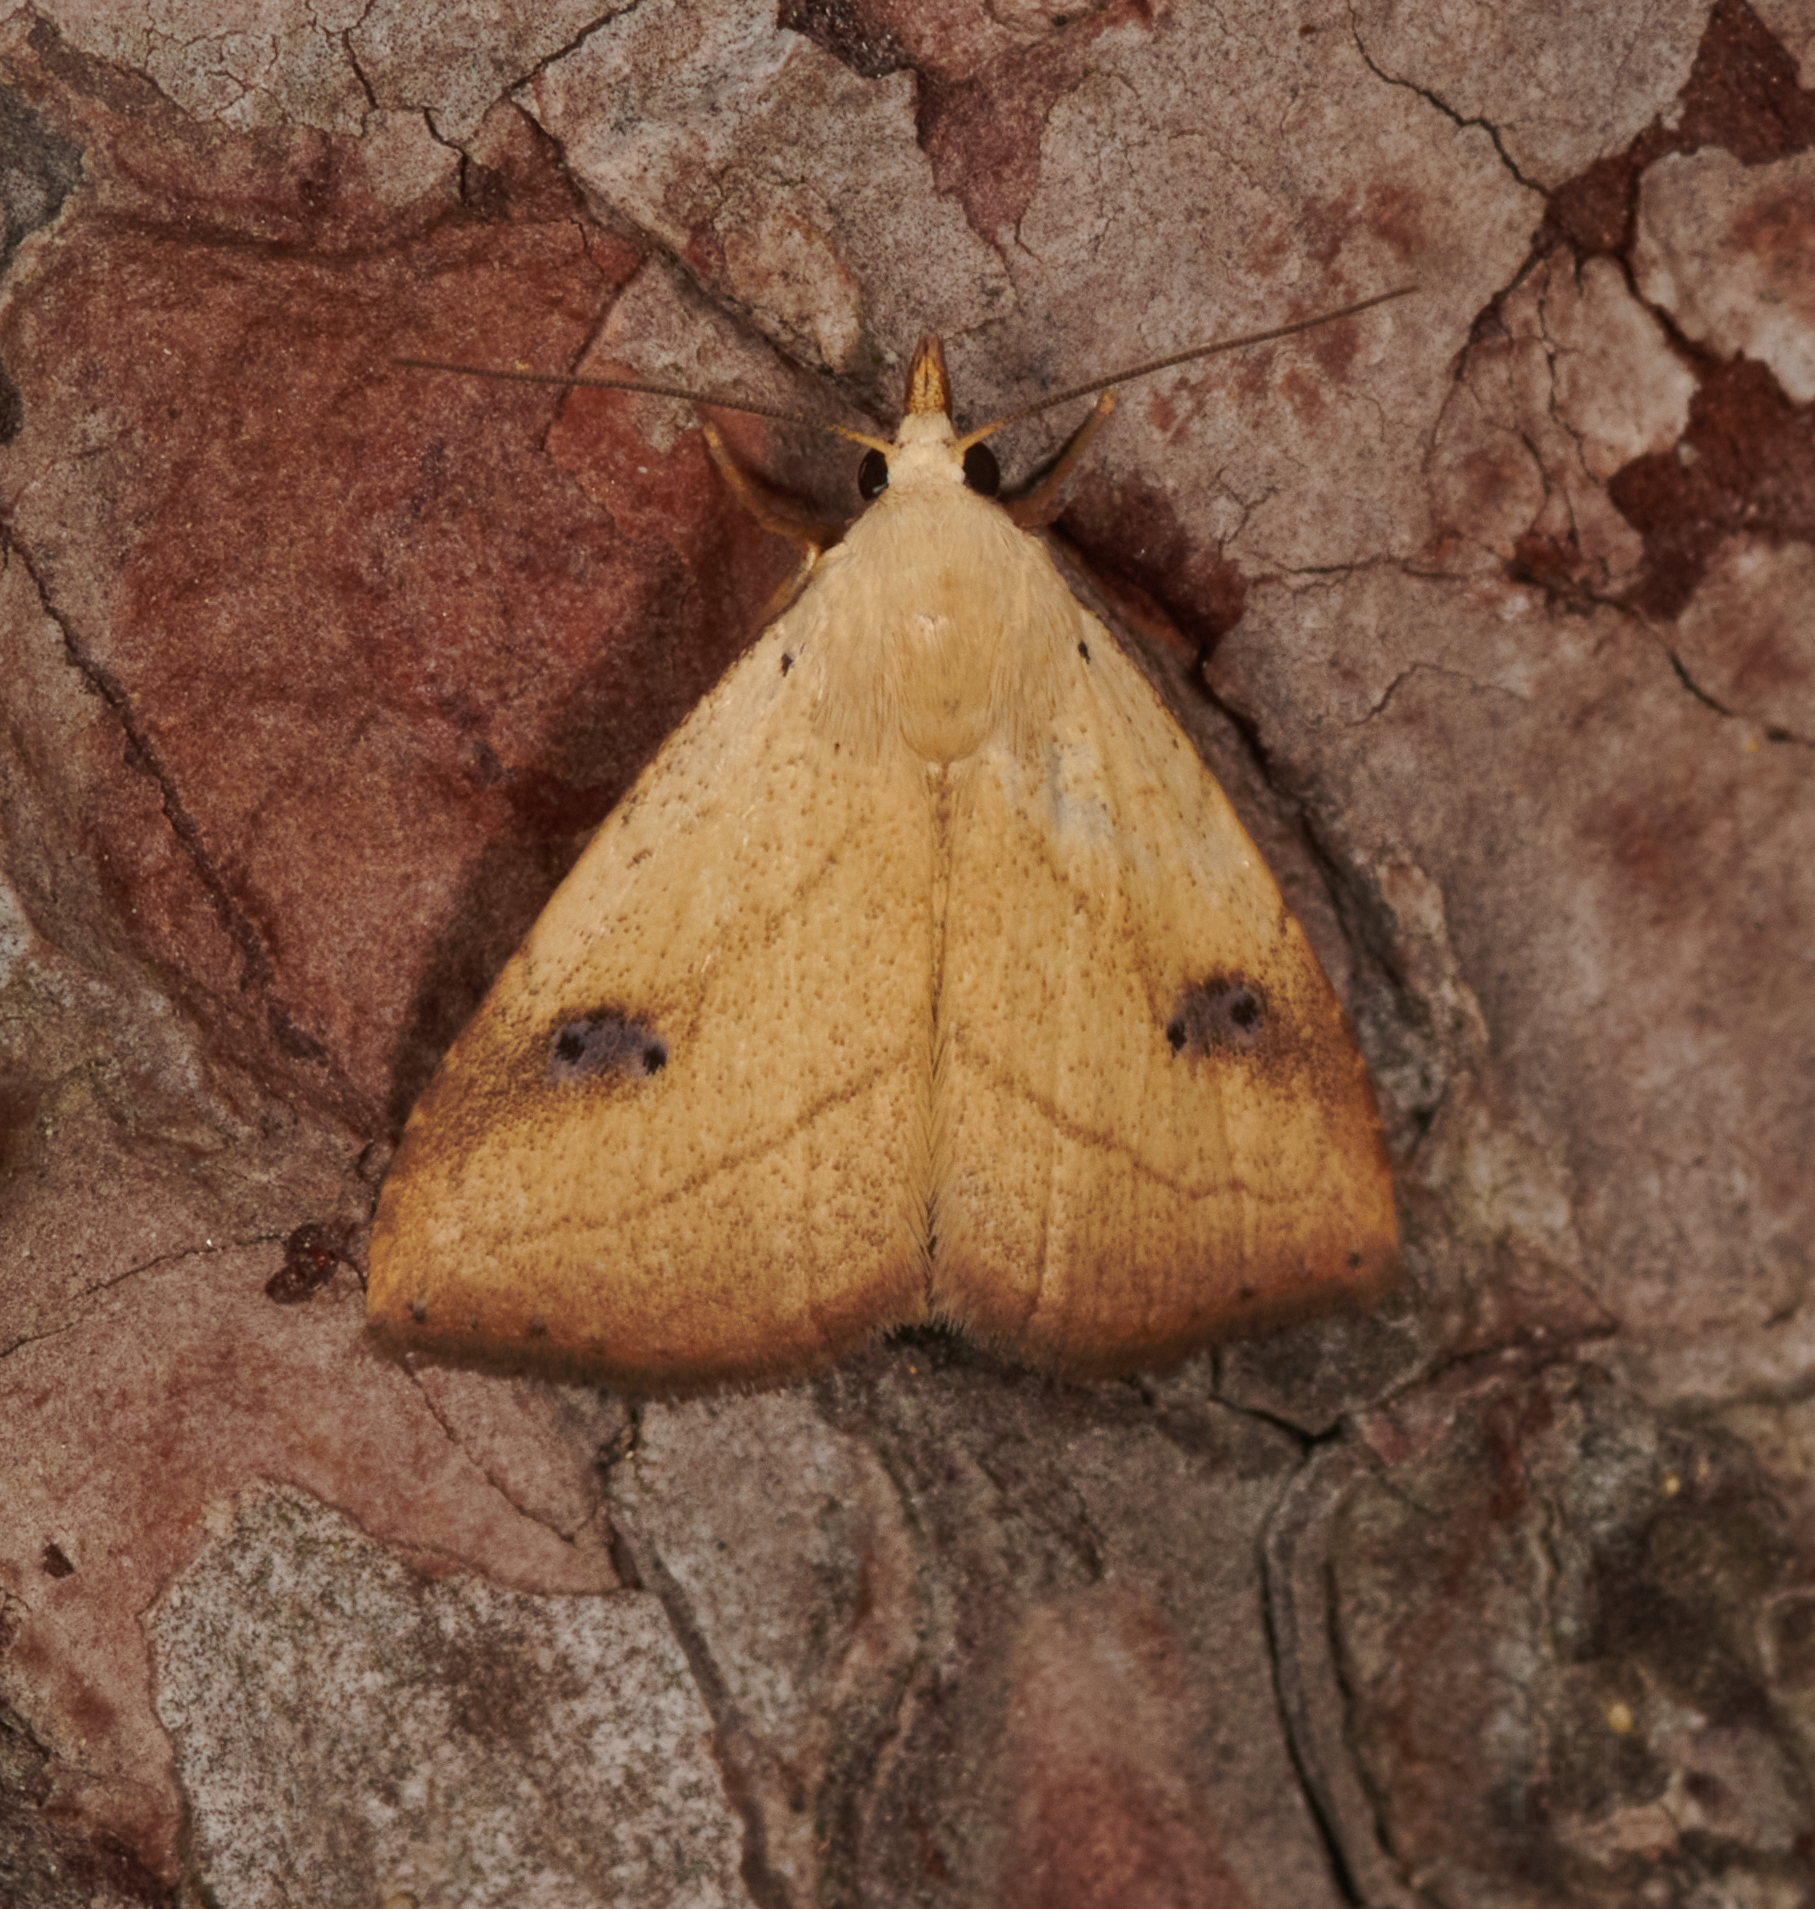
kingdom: Animalia
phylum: Arthropoda
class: Insecta
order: Lepidoptera
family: Erebidae
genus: Rivula
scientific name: Rivula propinqualis
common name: Spotted grass moth
